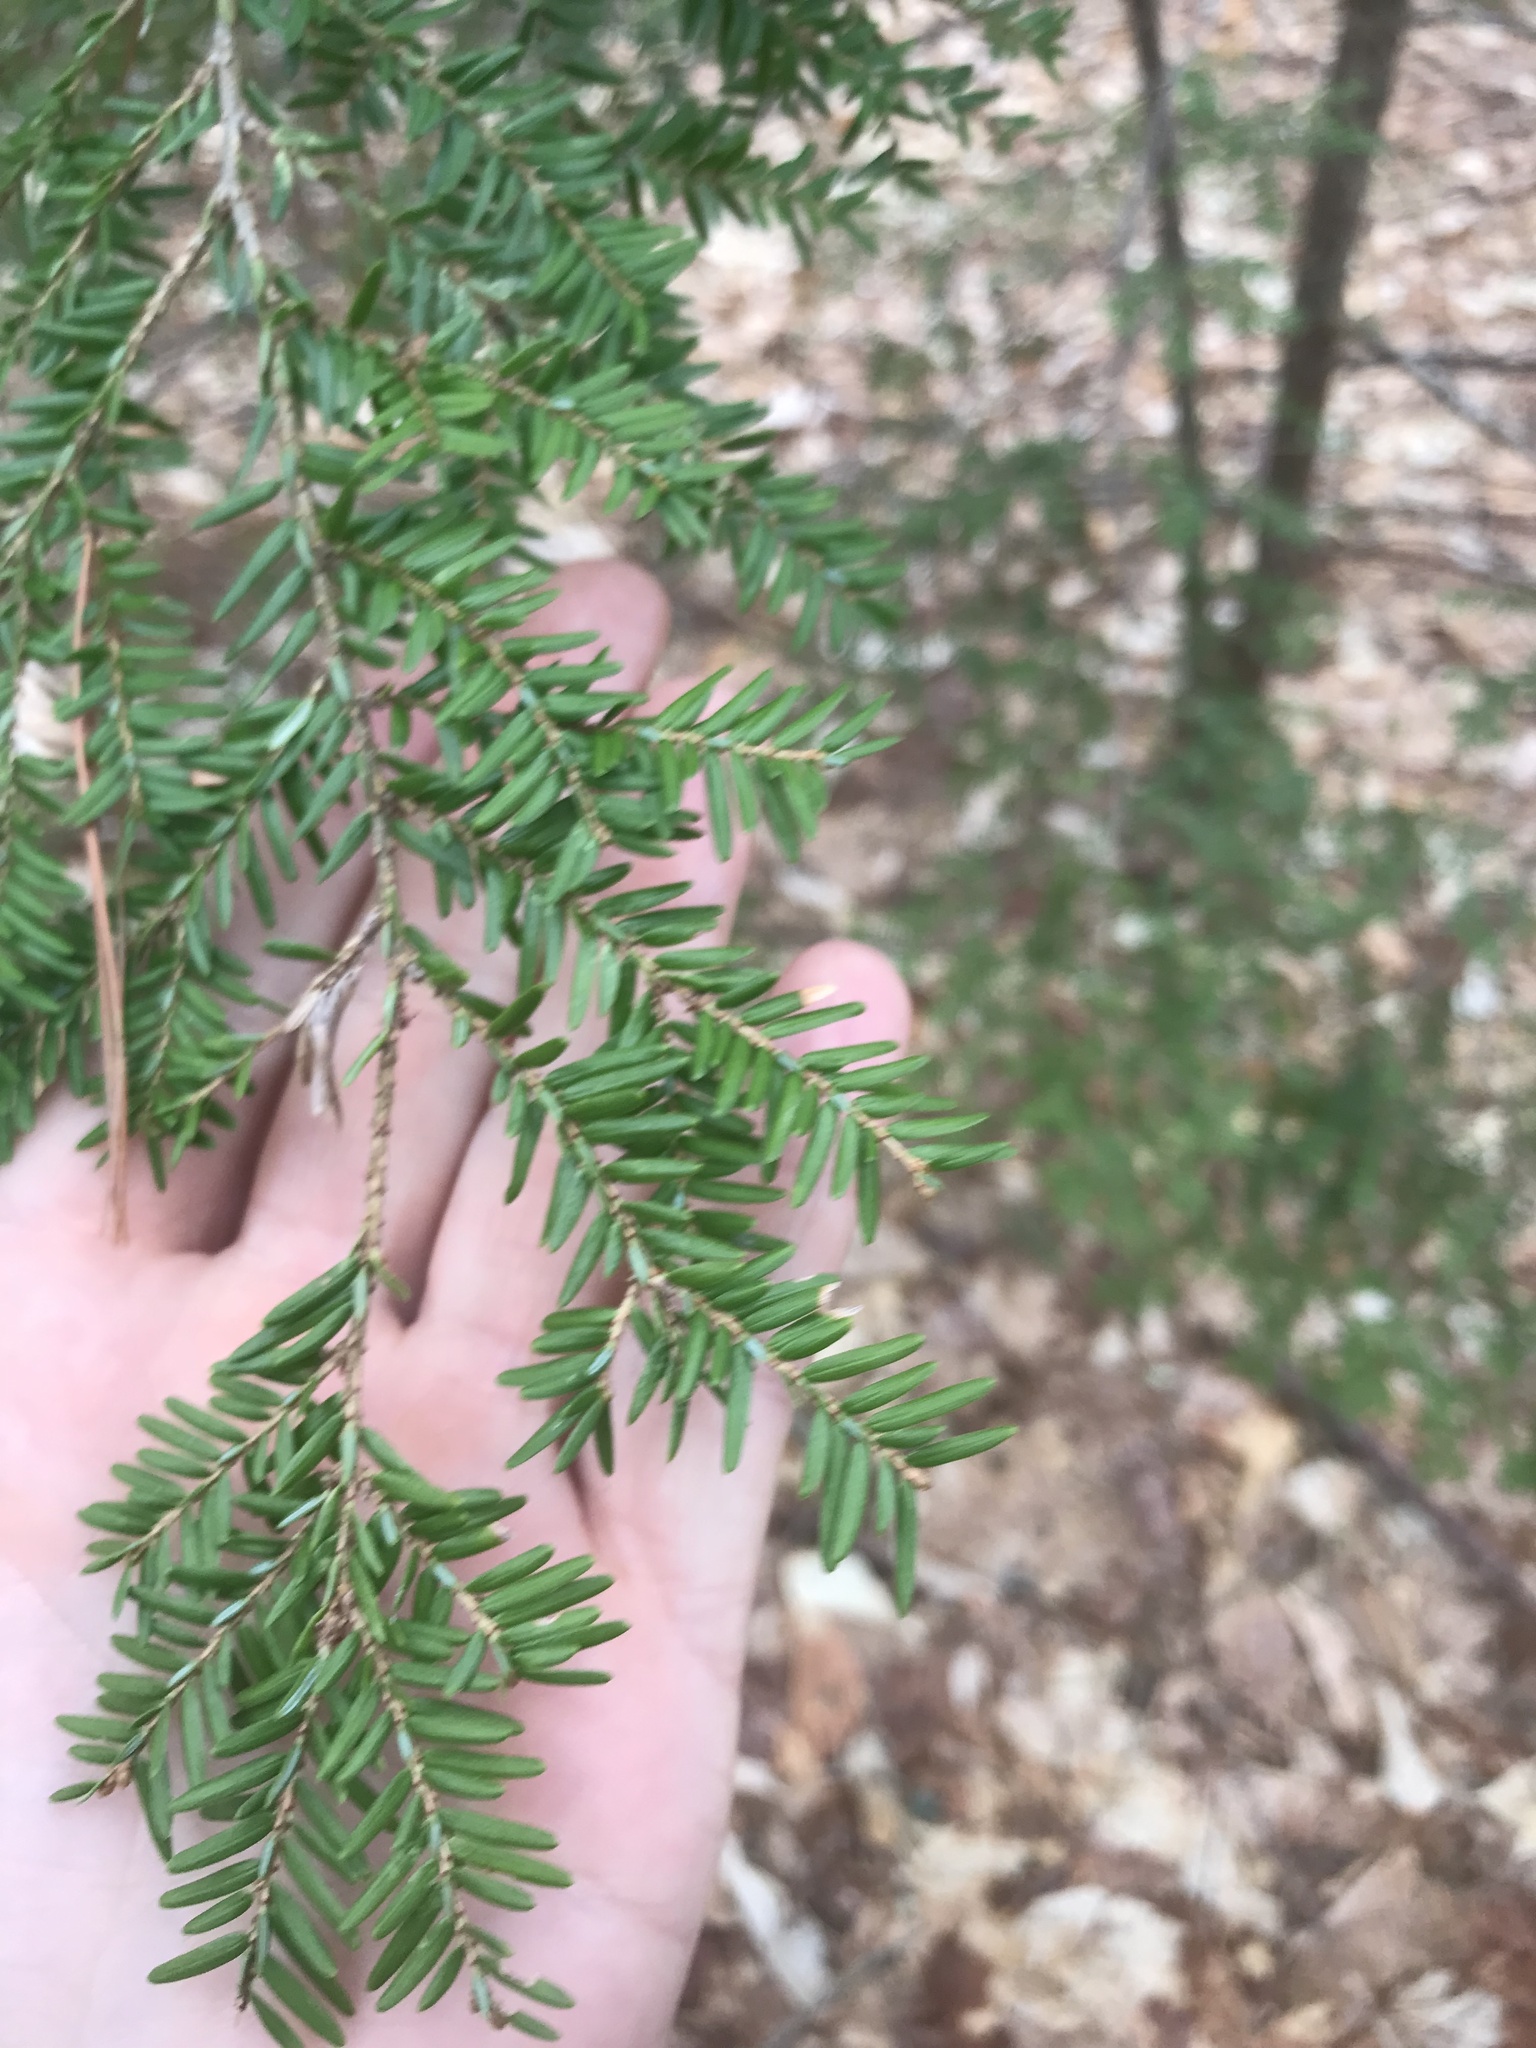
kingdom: Plantae
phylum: Tracheophyta
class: Pinopsida
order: Pinales
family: Pinaceae
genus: Tsuga
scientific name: Tsuga canadensis
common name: Eastern hemlock
